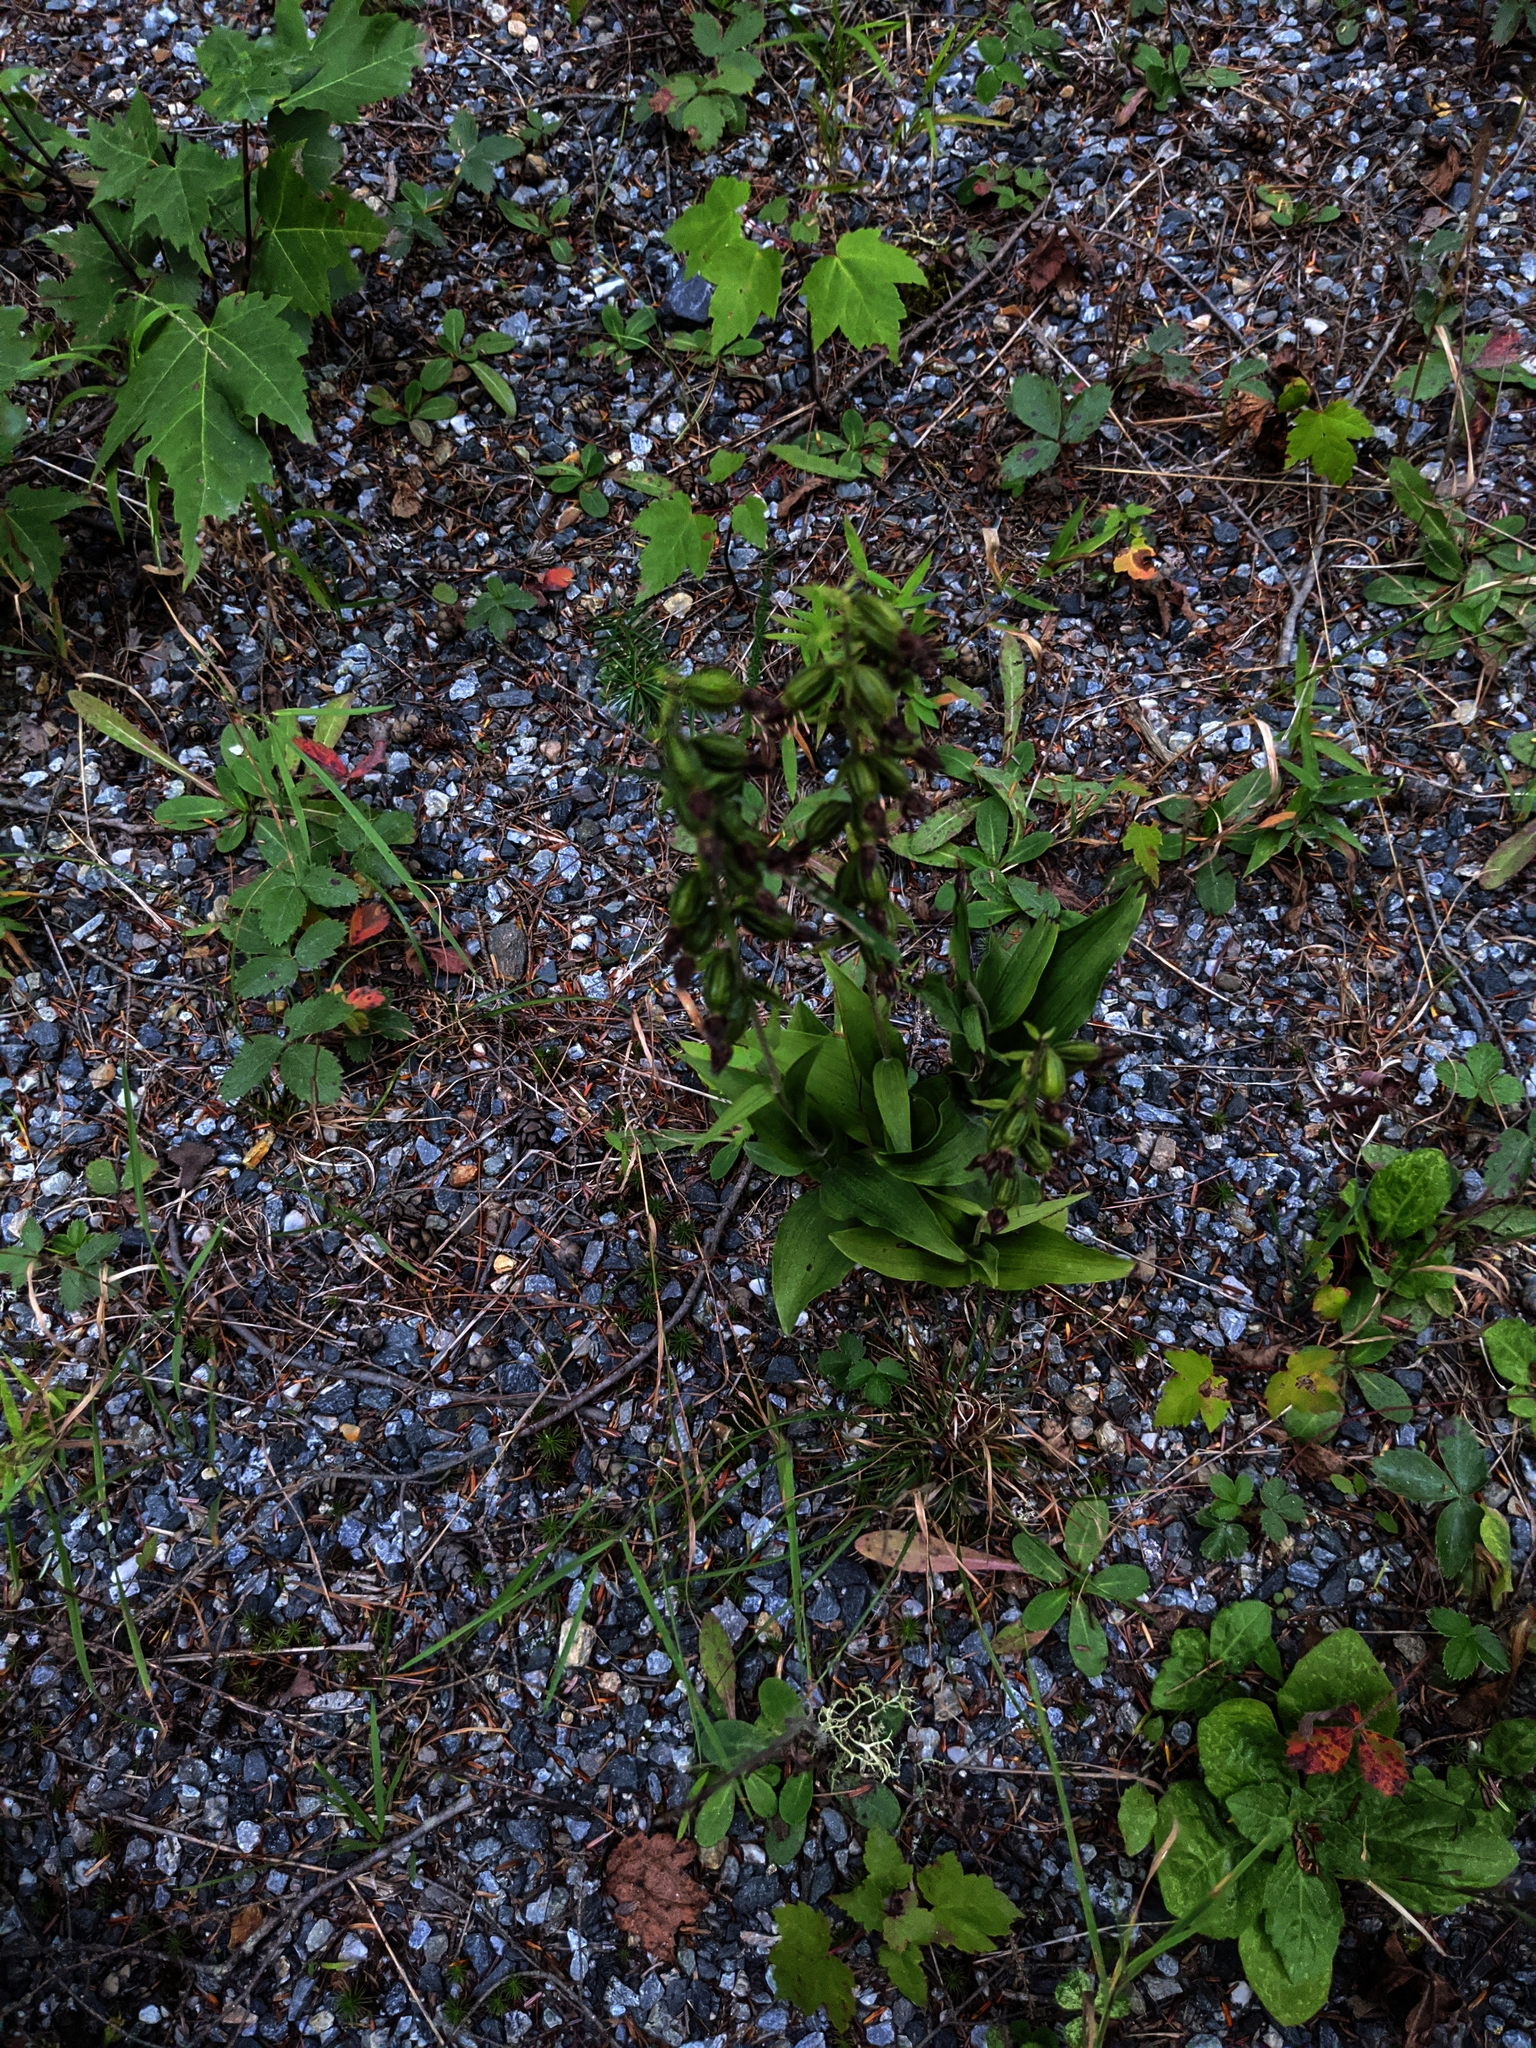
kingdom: Plantae
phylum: Tracheophyta
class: Liliopsida
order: Asparagales
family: Orchidaceae
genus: Epipactis
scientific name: Epipactis helleborine
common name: Broad-leaved helleborine
